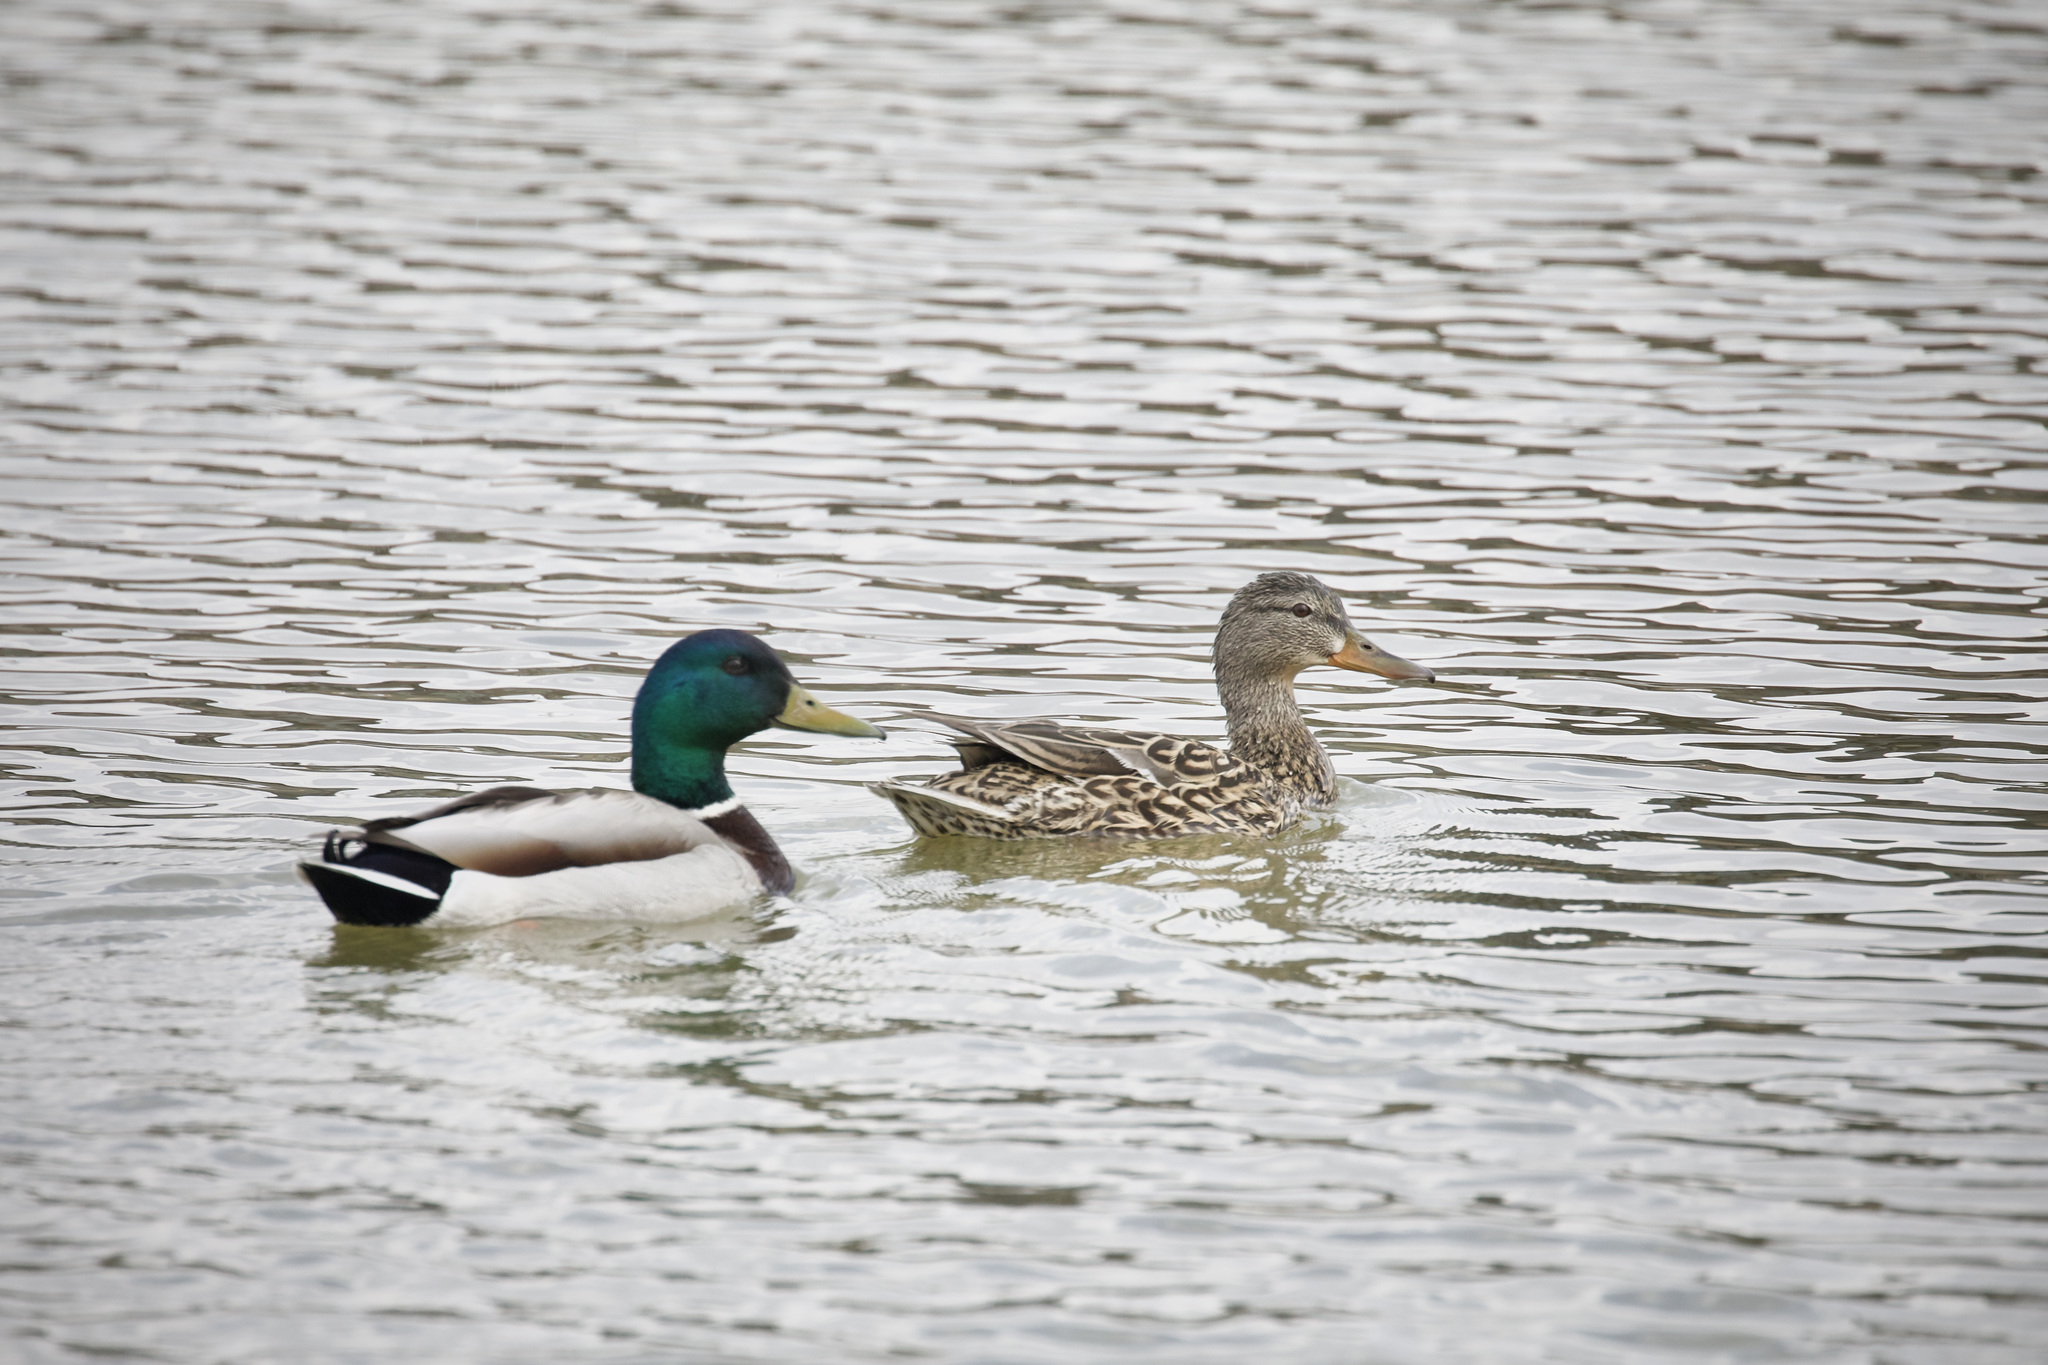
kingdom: Animalia
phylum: Chordata
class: Aves
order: Anseriformes
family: Anatidae
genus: Anas
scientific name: Anas platyrhynchos
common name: Mallard
